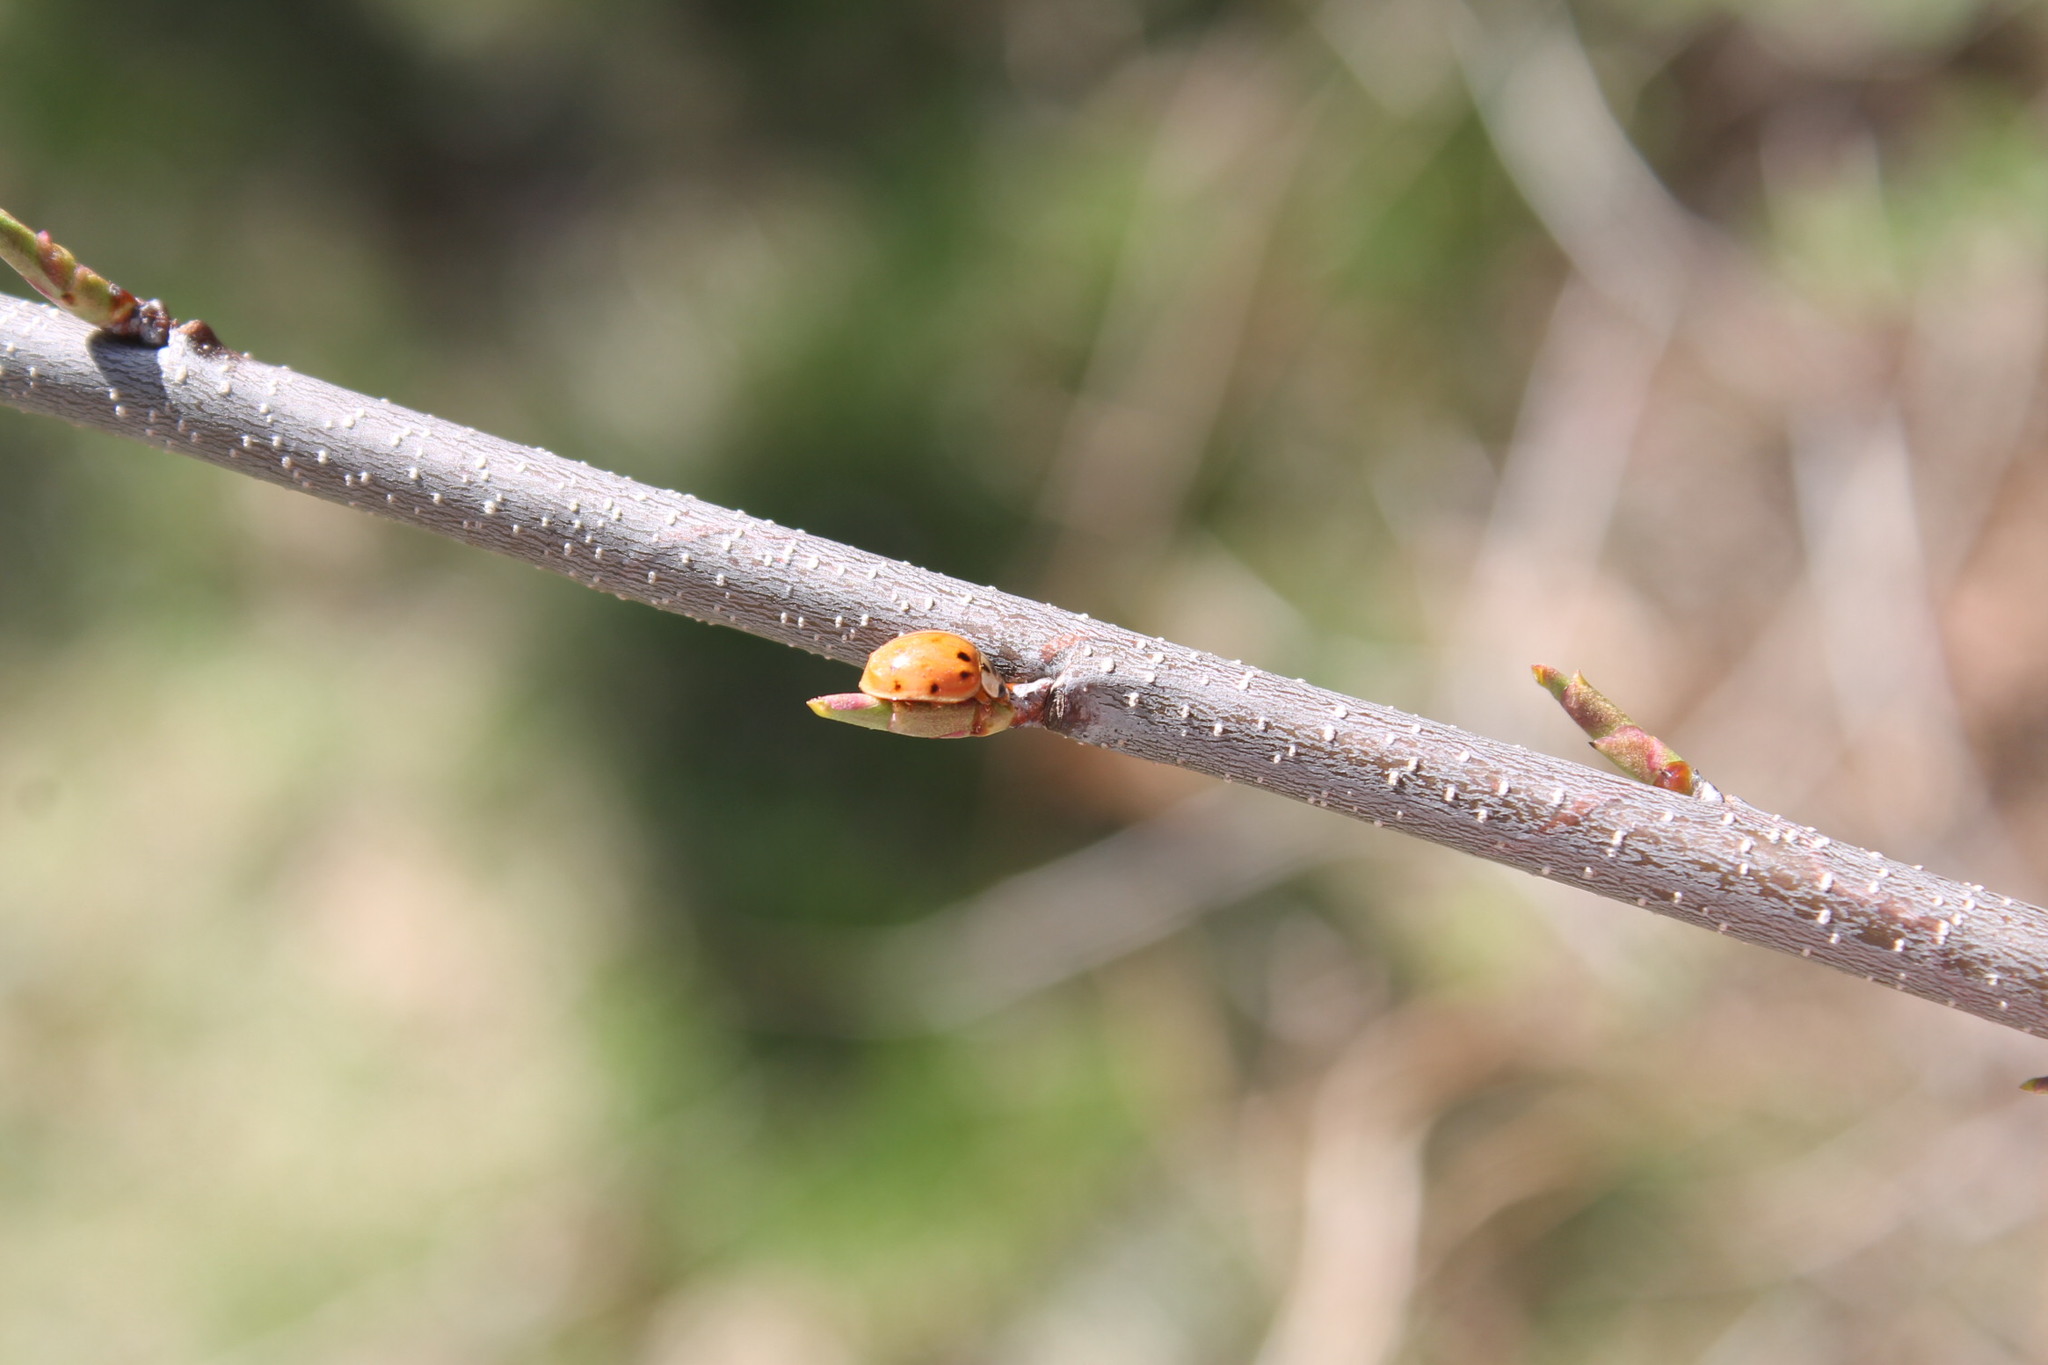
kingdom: Animalia
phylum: Arthropoda
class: Insecta
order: Coleoptera
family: Coccinellidae
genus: Harmonia
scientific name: Harmonia axyridis
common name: Harlequin ladybird
